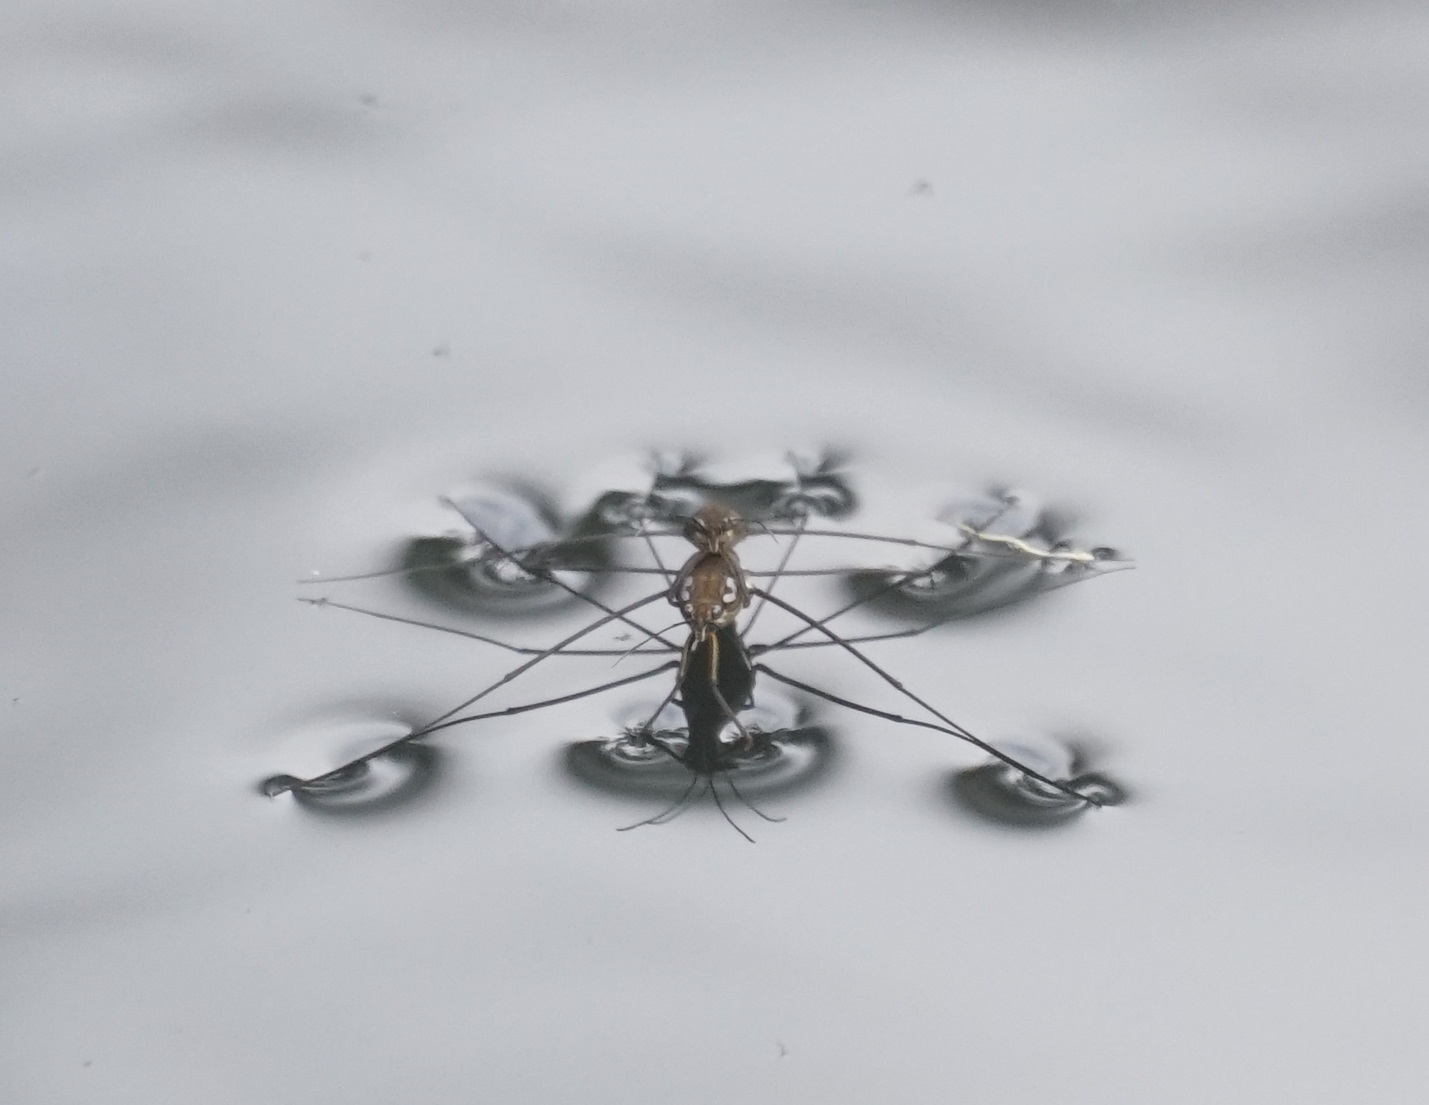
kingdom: Animalia
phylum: Arthropoda
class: Insecta
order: Hemiptera
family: Gerridae
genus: Tenagogerris
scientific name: Tenagogerris euphrosyne
